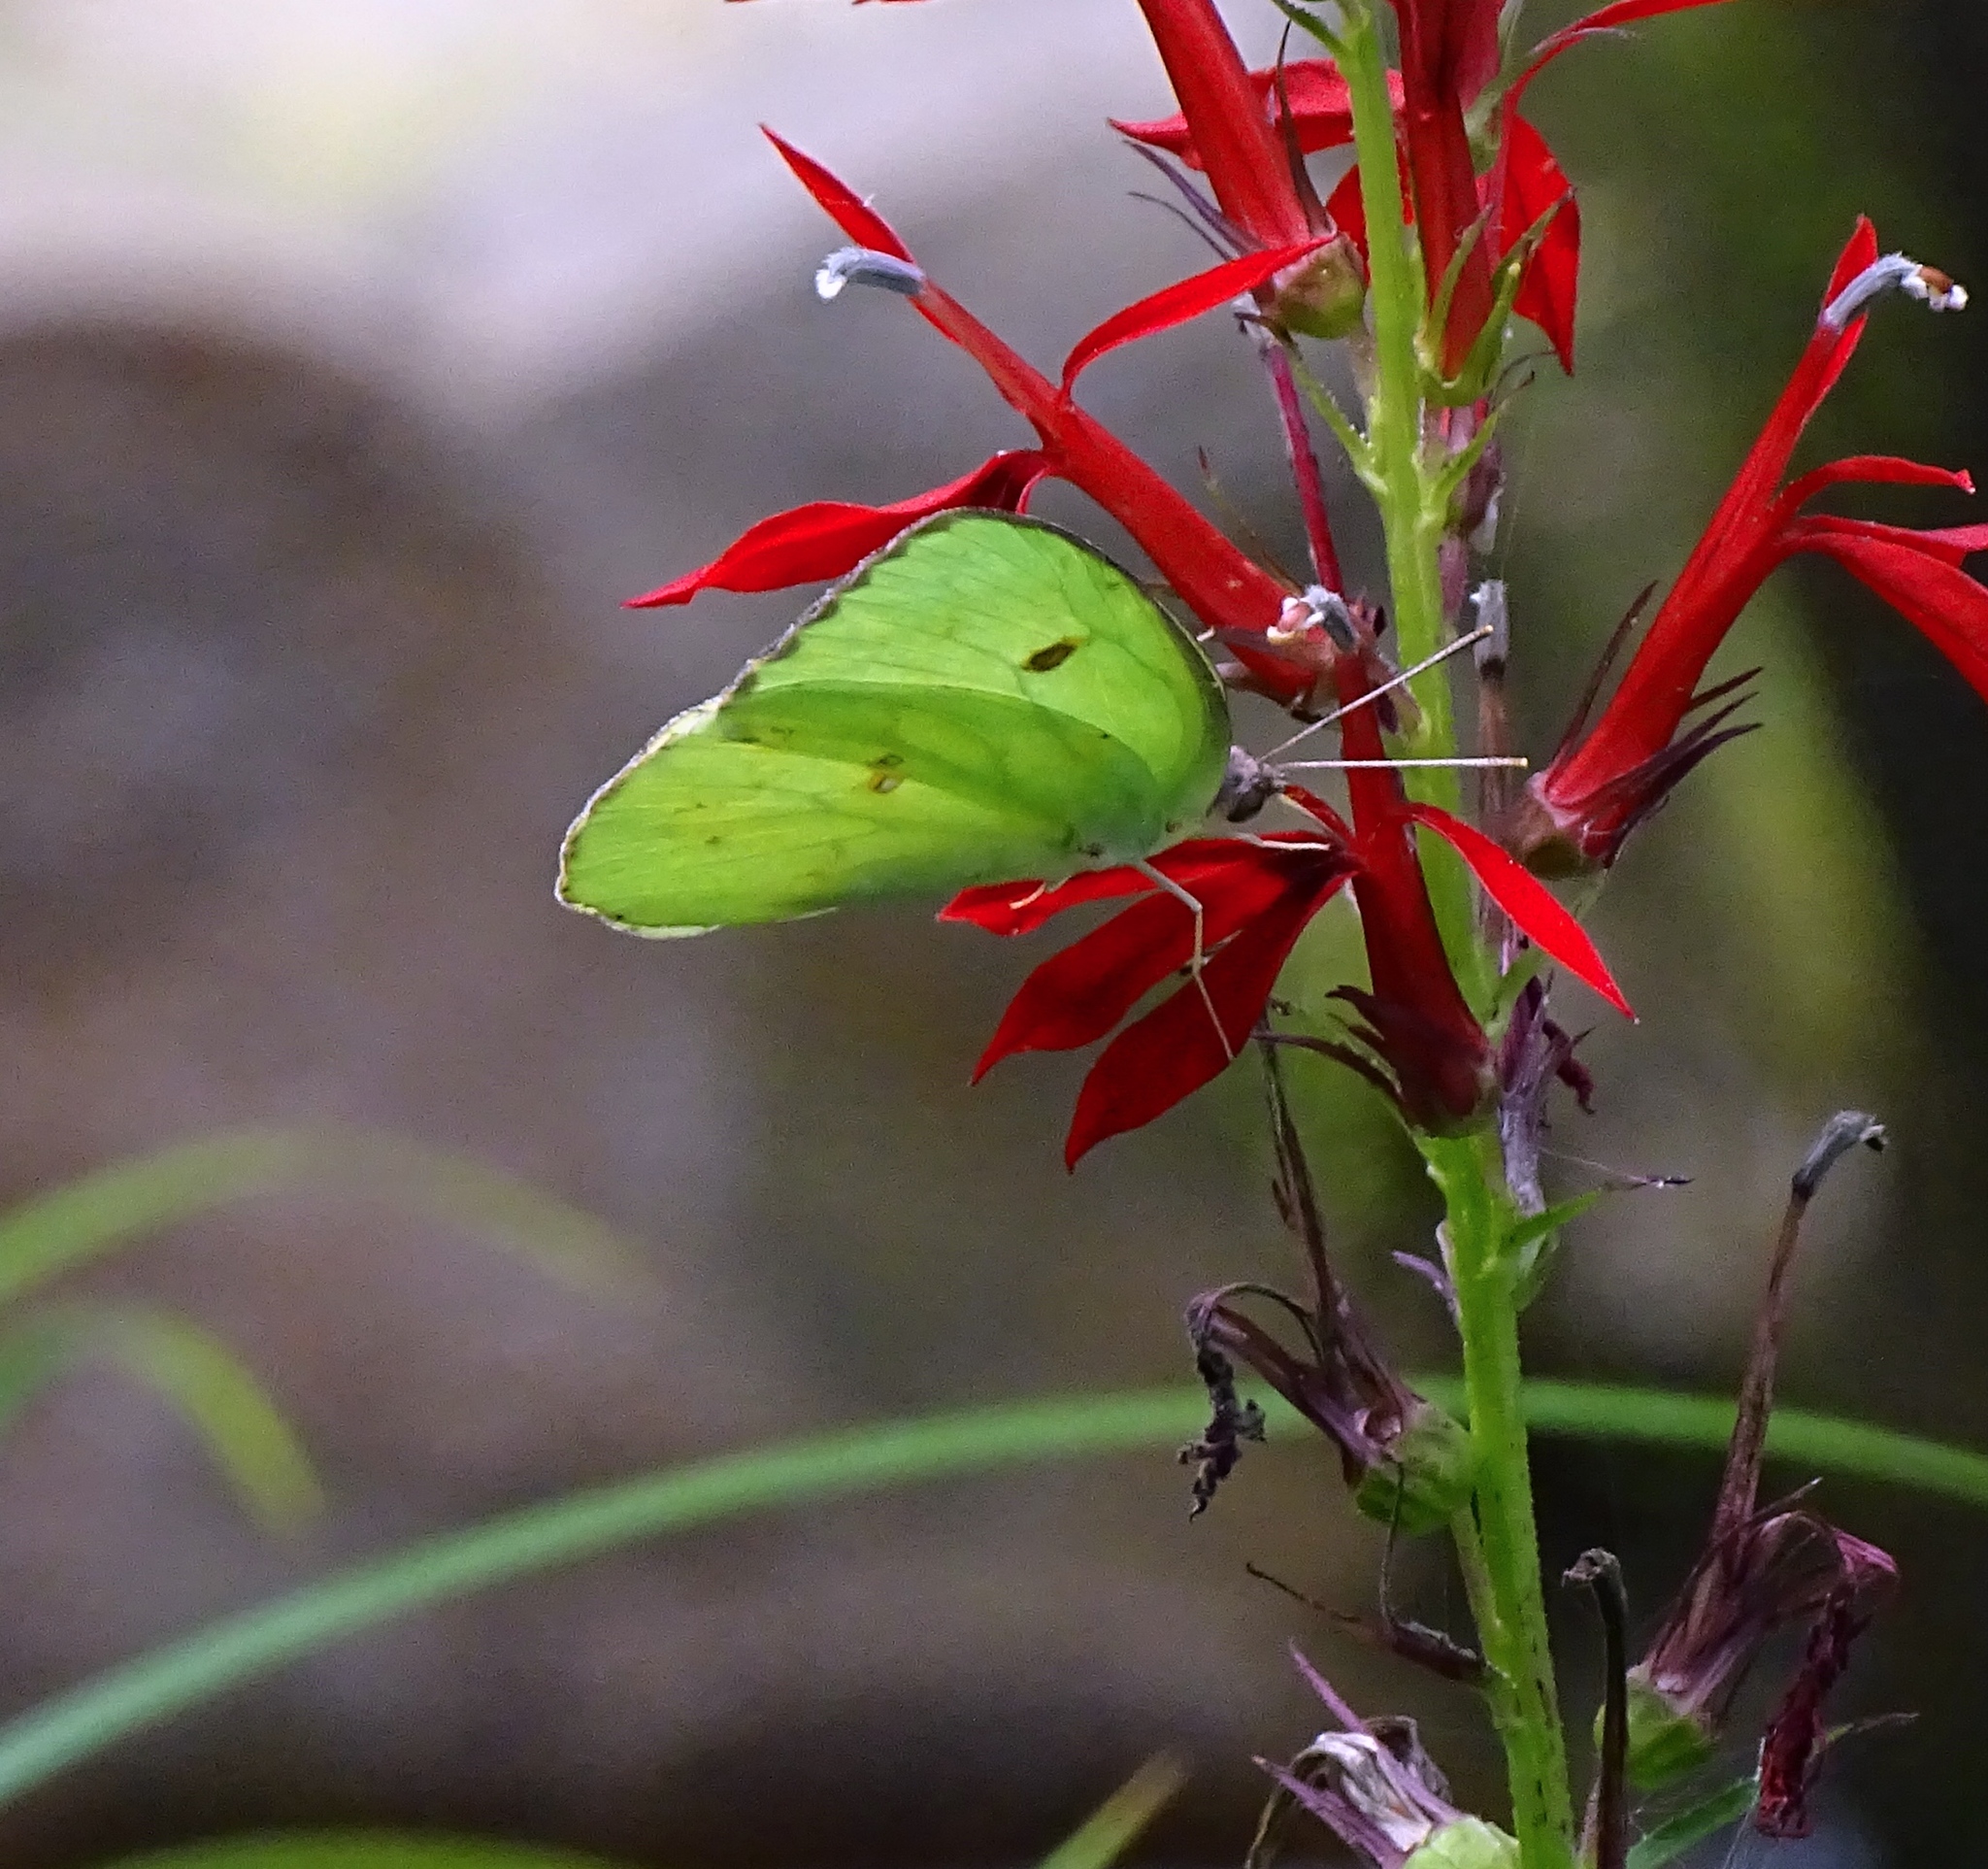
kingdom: Animalia
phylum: Arthropoda
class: Insecta
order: Lepidoptera
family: Pieridae
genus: Phoebis
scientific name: Phoebis sennae
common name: Cloudless sulphur
